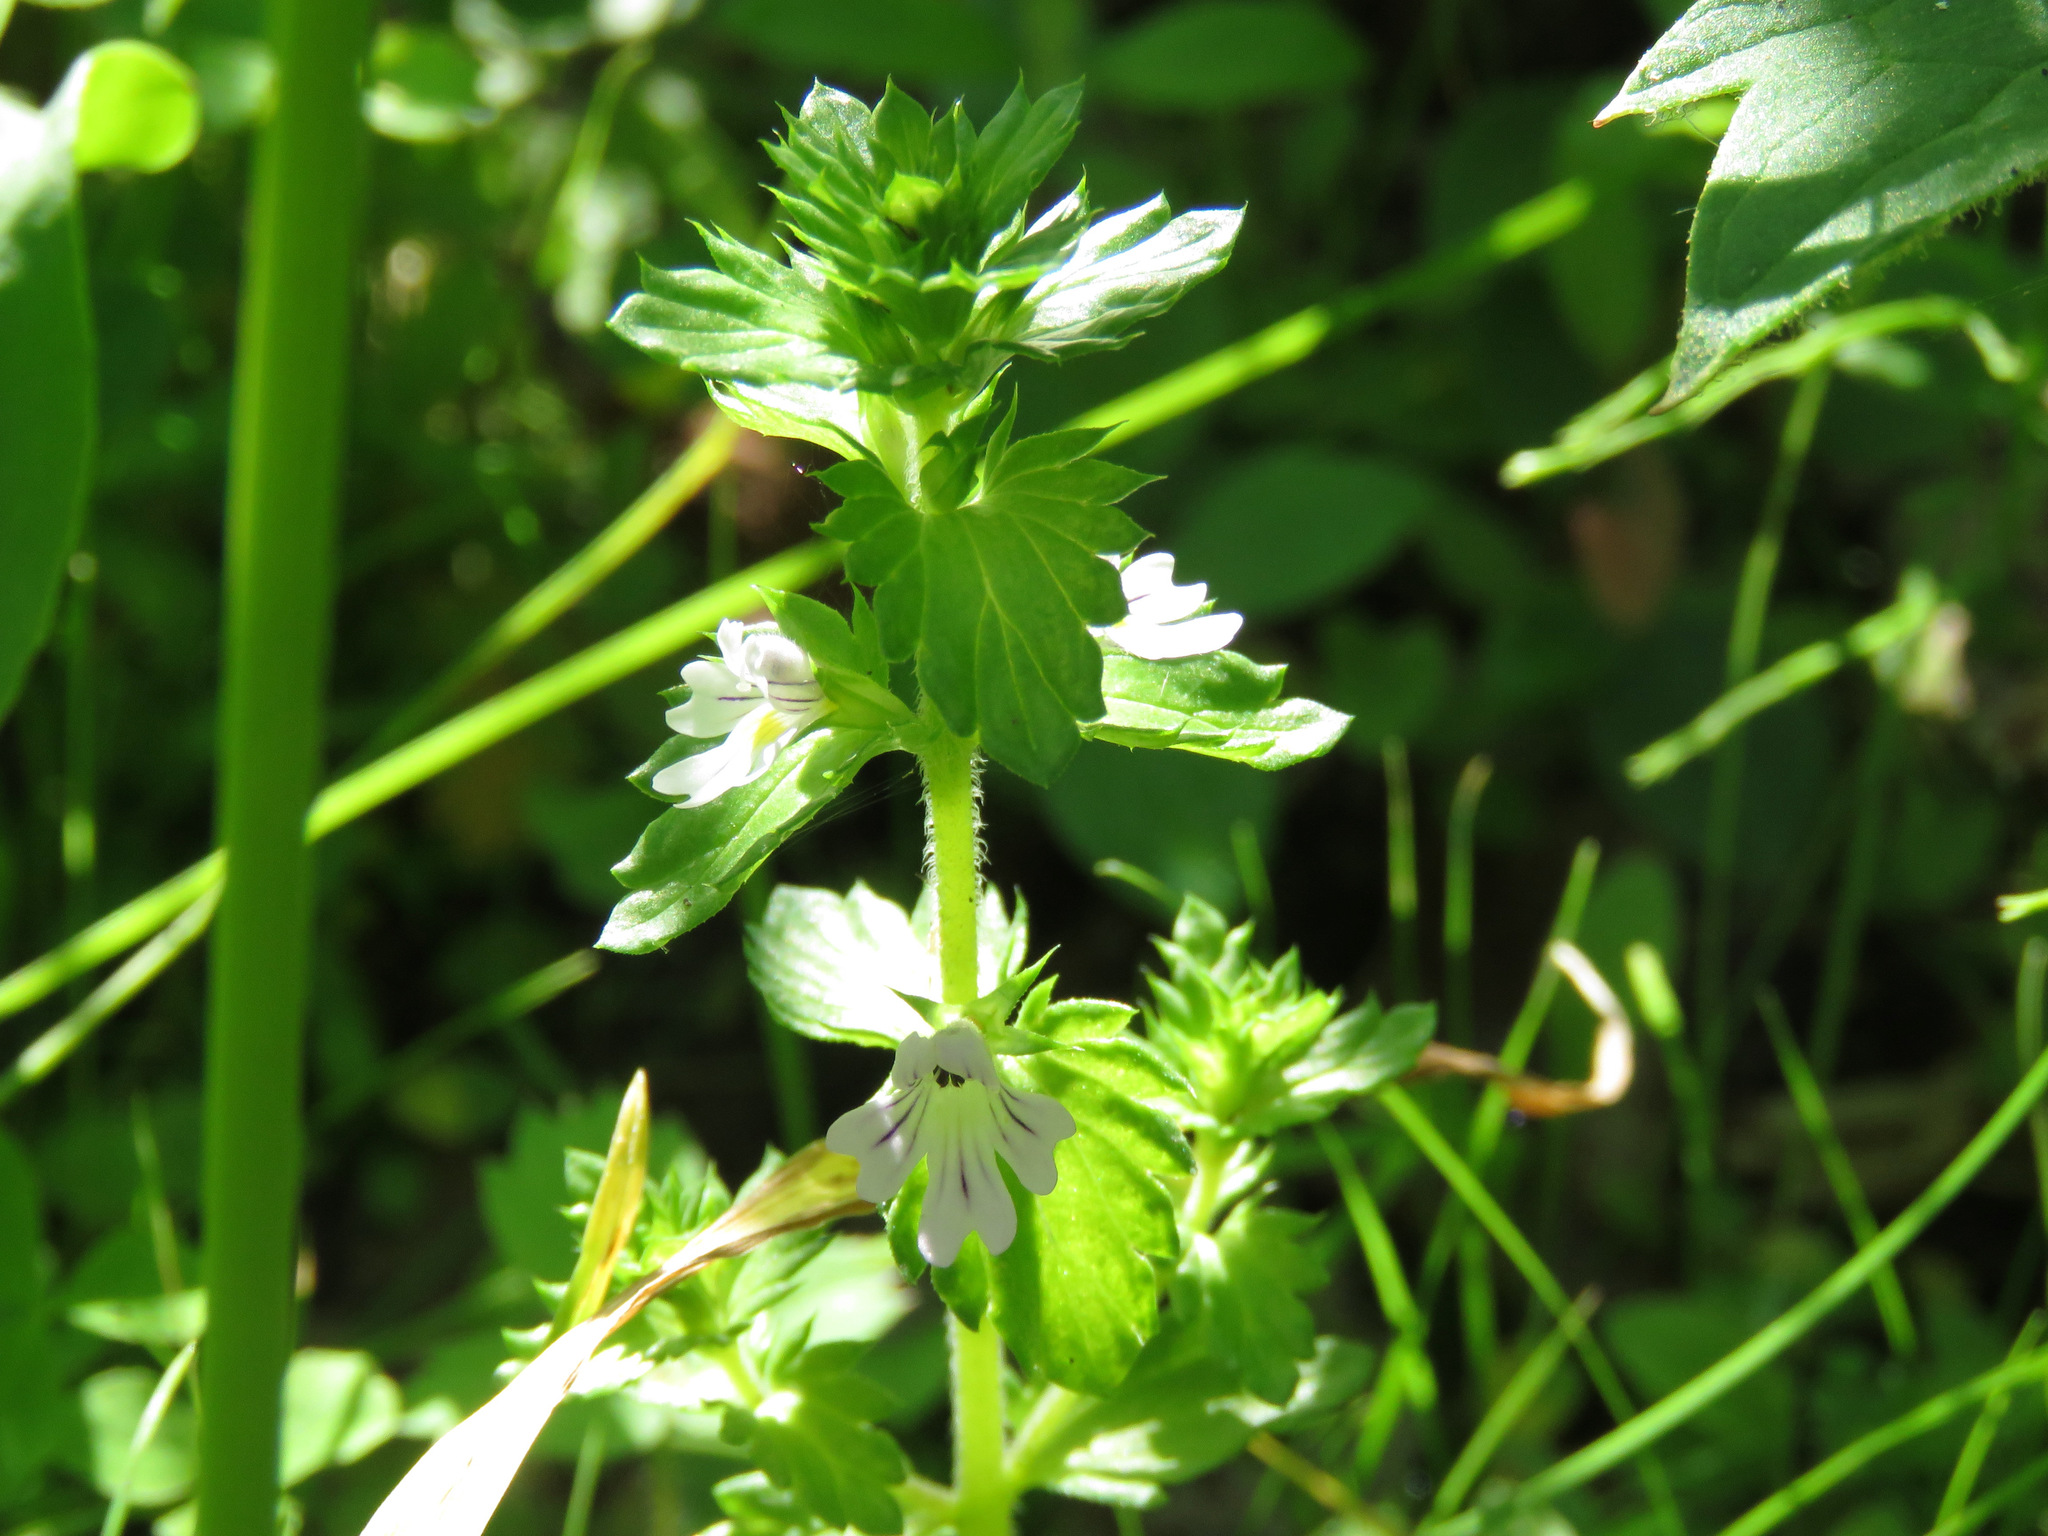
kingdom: Plantae
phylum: Tracheophyta
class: Magnoliopsida
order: Lamiales
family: Orobanchaceae
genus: Euphrasia
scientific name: Euphrasia nemorosa
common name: Common eyebright
